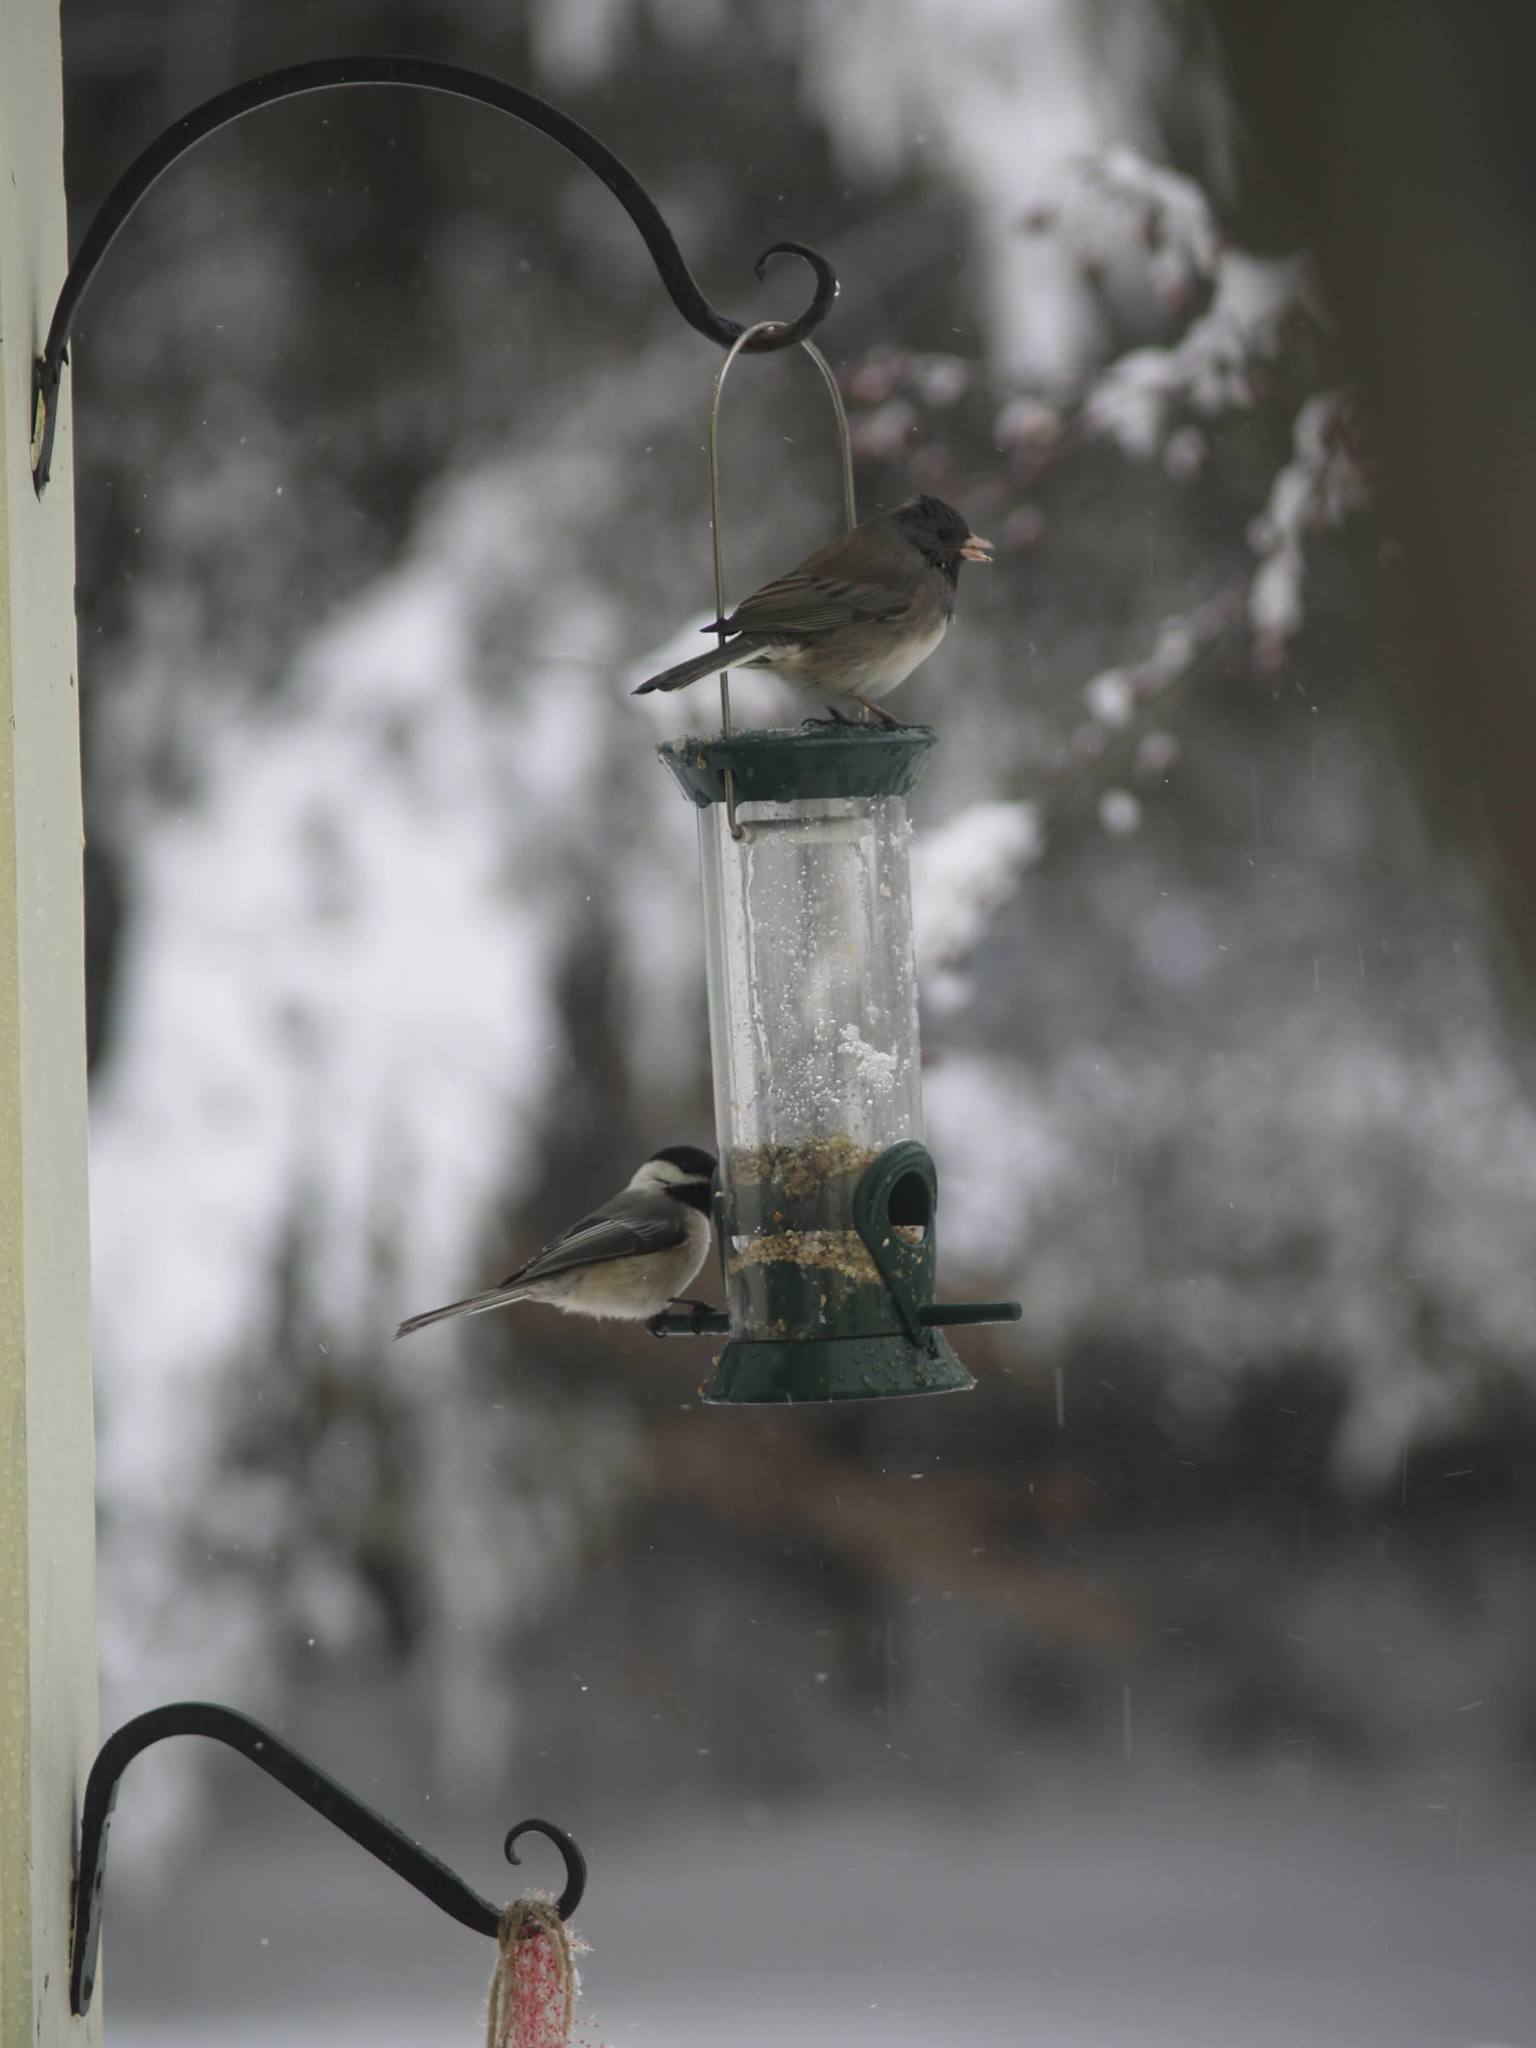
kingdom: Animalia
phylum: Chordata
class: Aves
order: Passeriformes
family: Passerellidae
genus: Junco
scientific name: Junco hyemalis
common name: Dark-eyed junco
